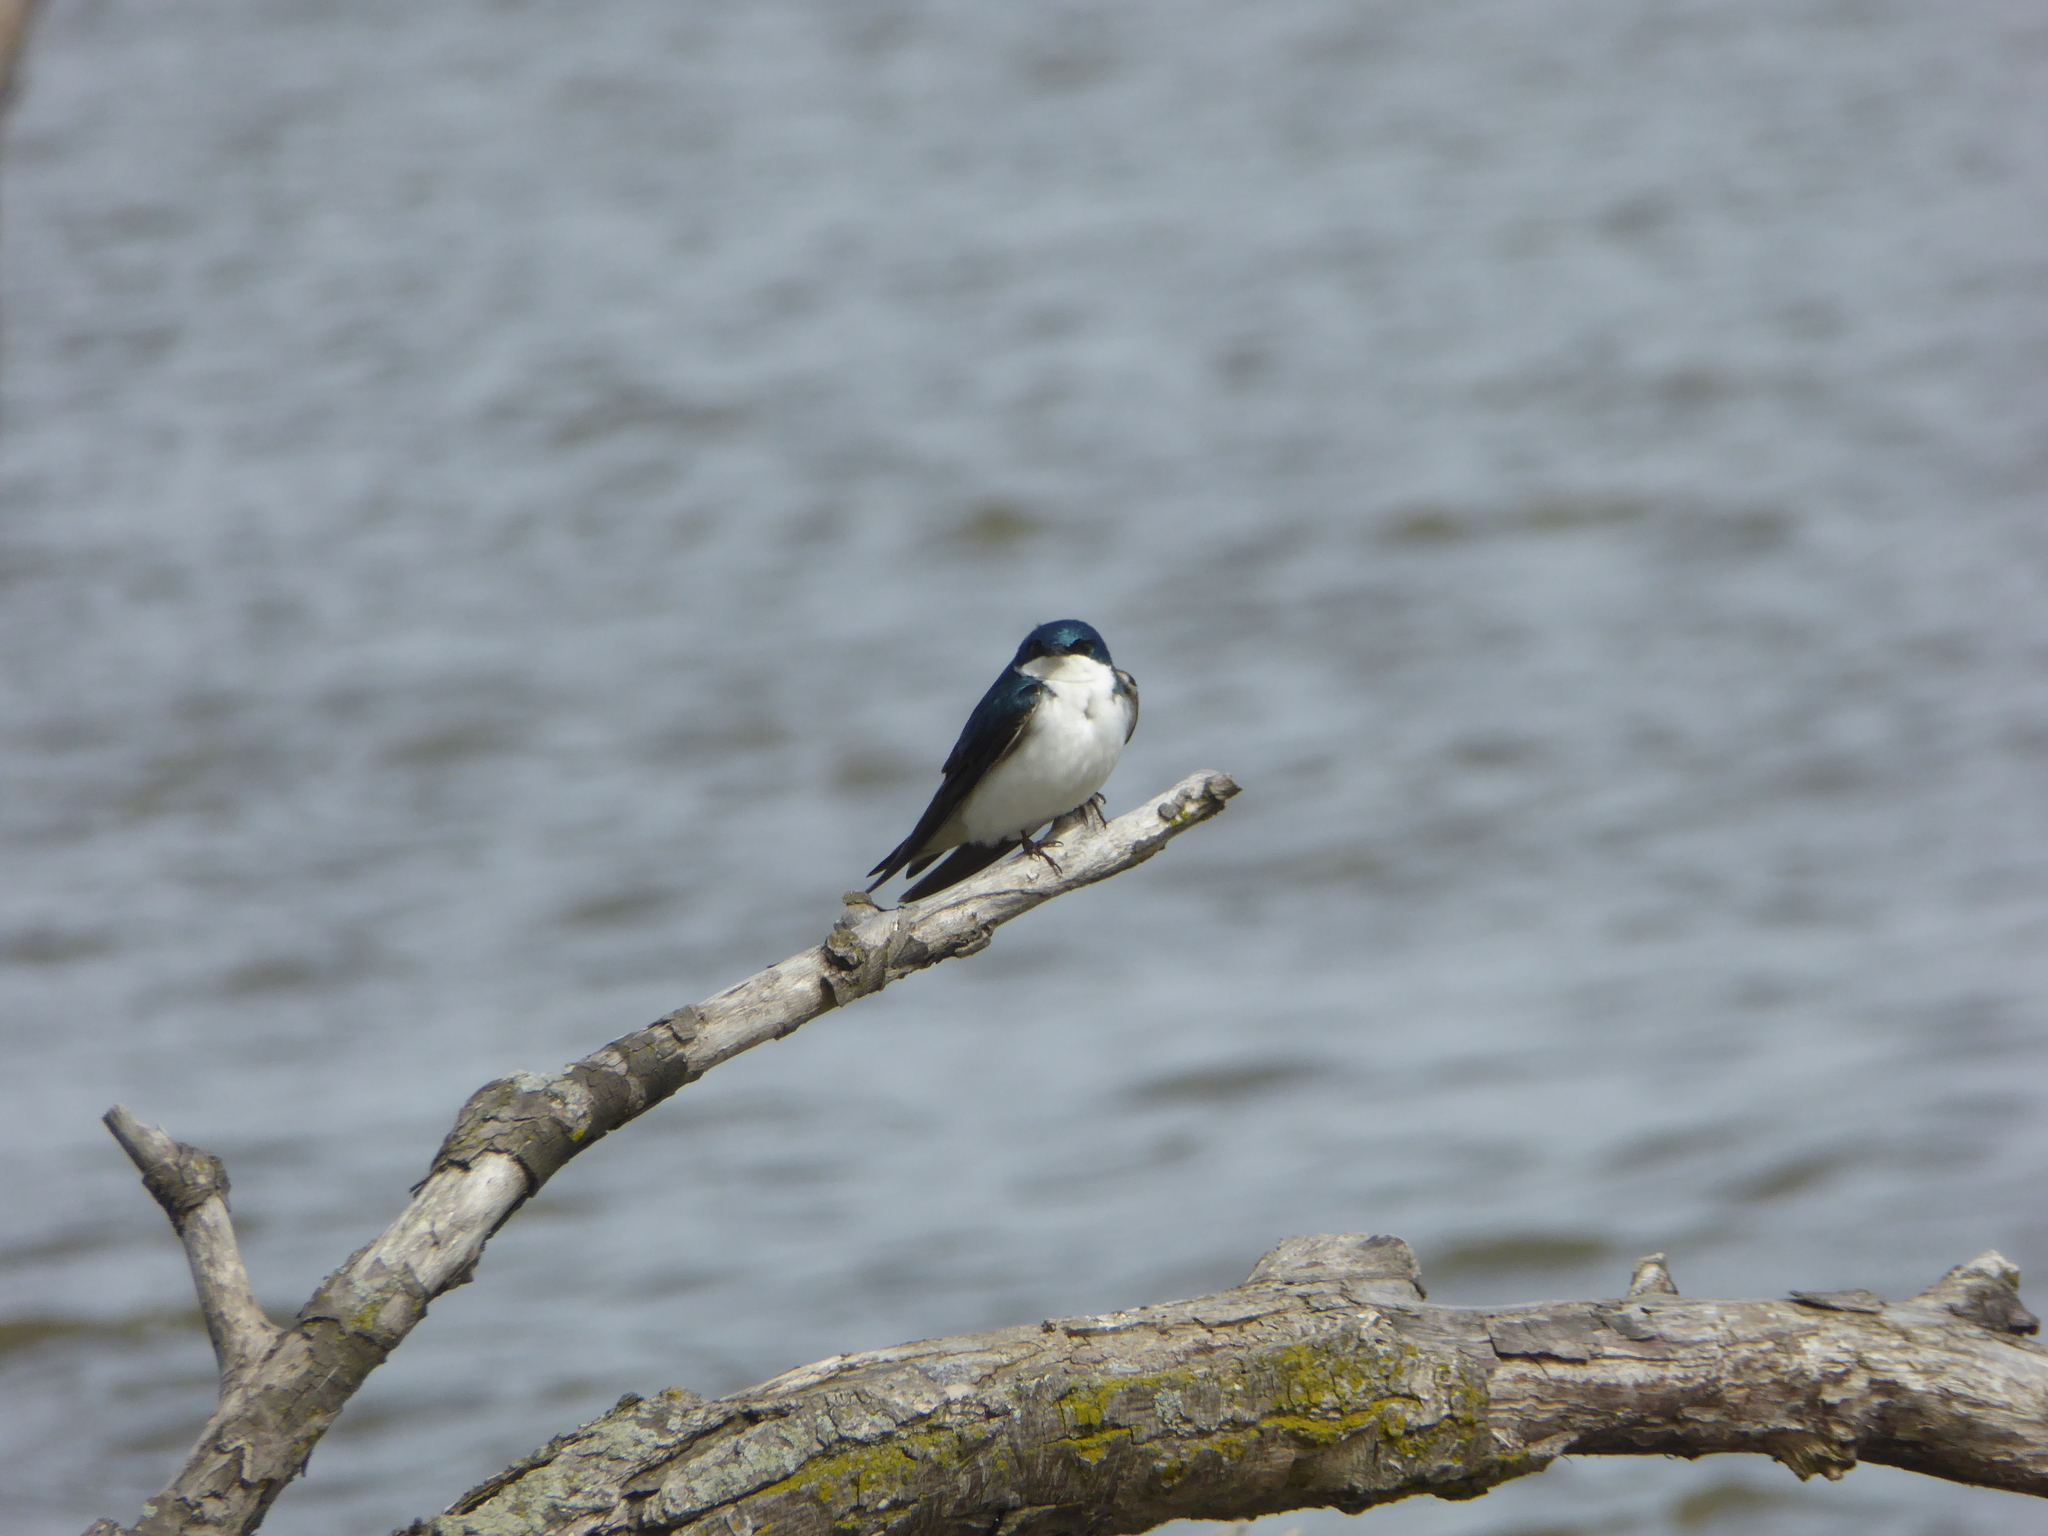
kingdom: Animalia
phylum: Chordata
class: Aves
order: Passeriformes
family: Hirundinidae
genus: Tachycineta
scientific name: Tachycineta bicolor
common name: Tree swallow
